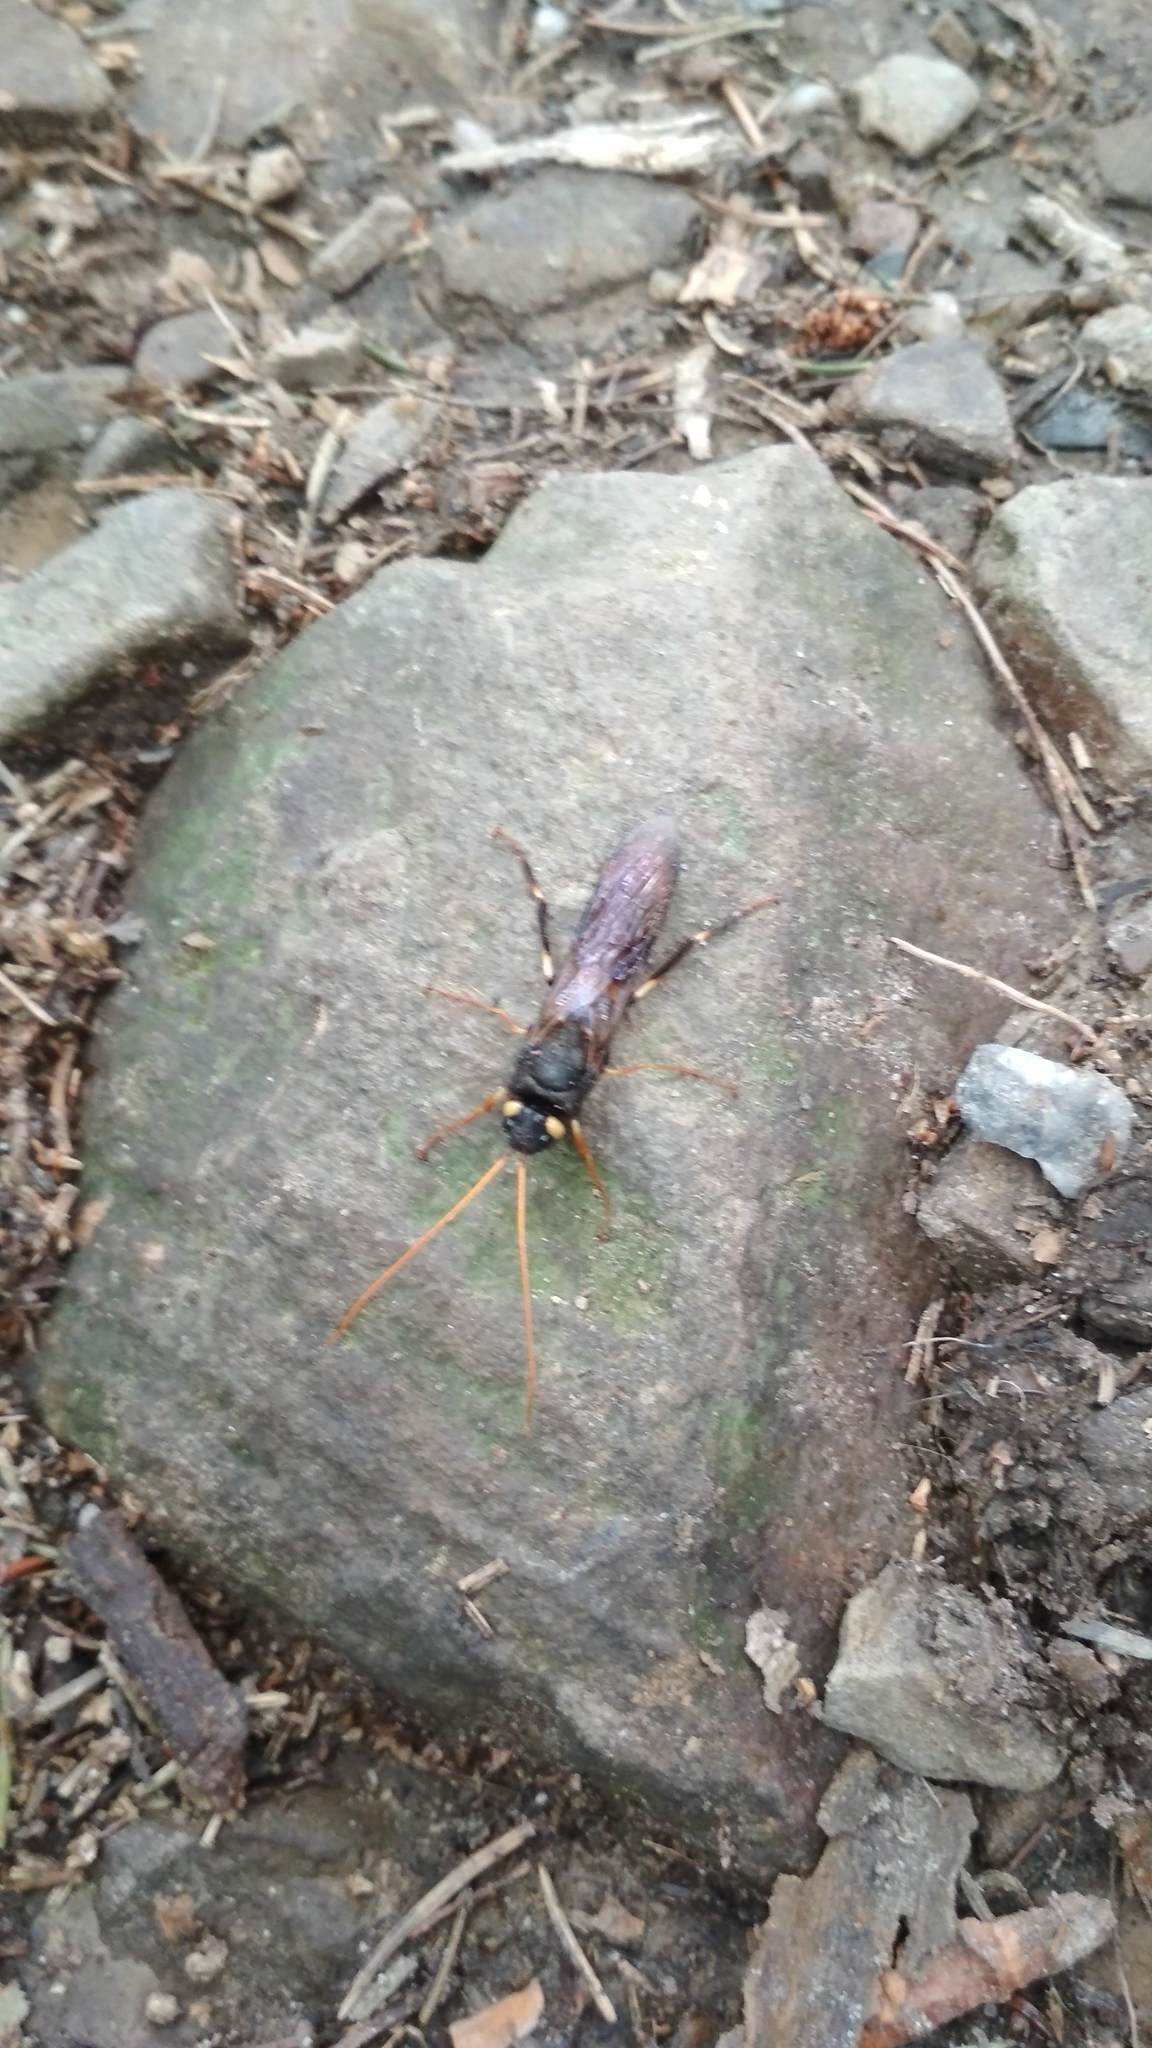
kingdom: Animalia
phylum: Arthropoda
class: Insecta
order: Hymenoptera
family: Siricidae
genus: Urocerus
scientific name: Urocerus gigas
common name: Giant woodwasp
